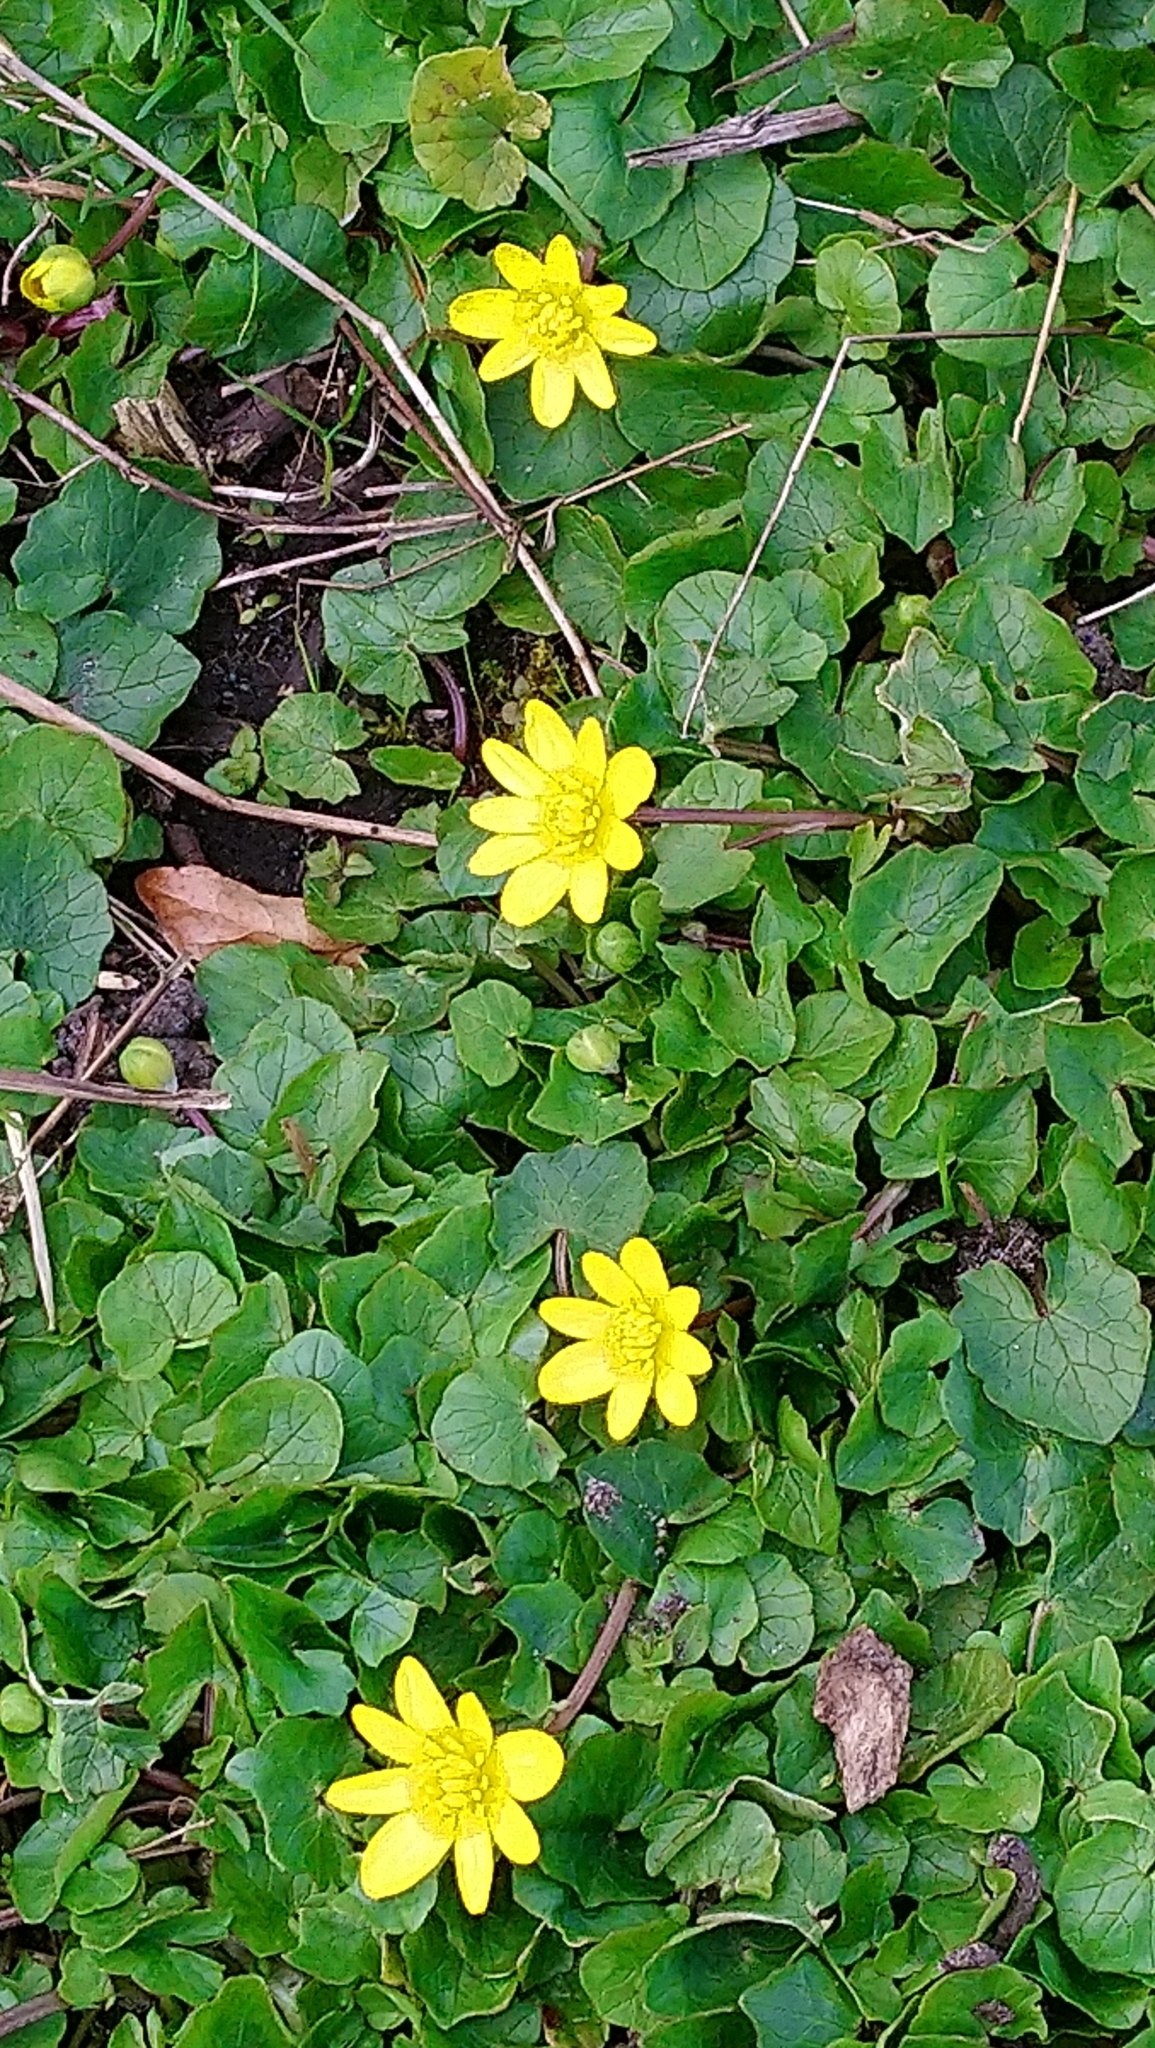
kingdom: Plantae
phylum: Tracheophyta
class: Magnoliopsida
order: Ranunculales
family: Ranunculaceae
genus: Ficaria
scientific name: Ficaria verna
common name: Lesser celandine
